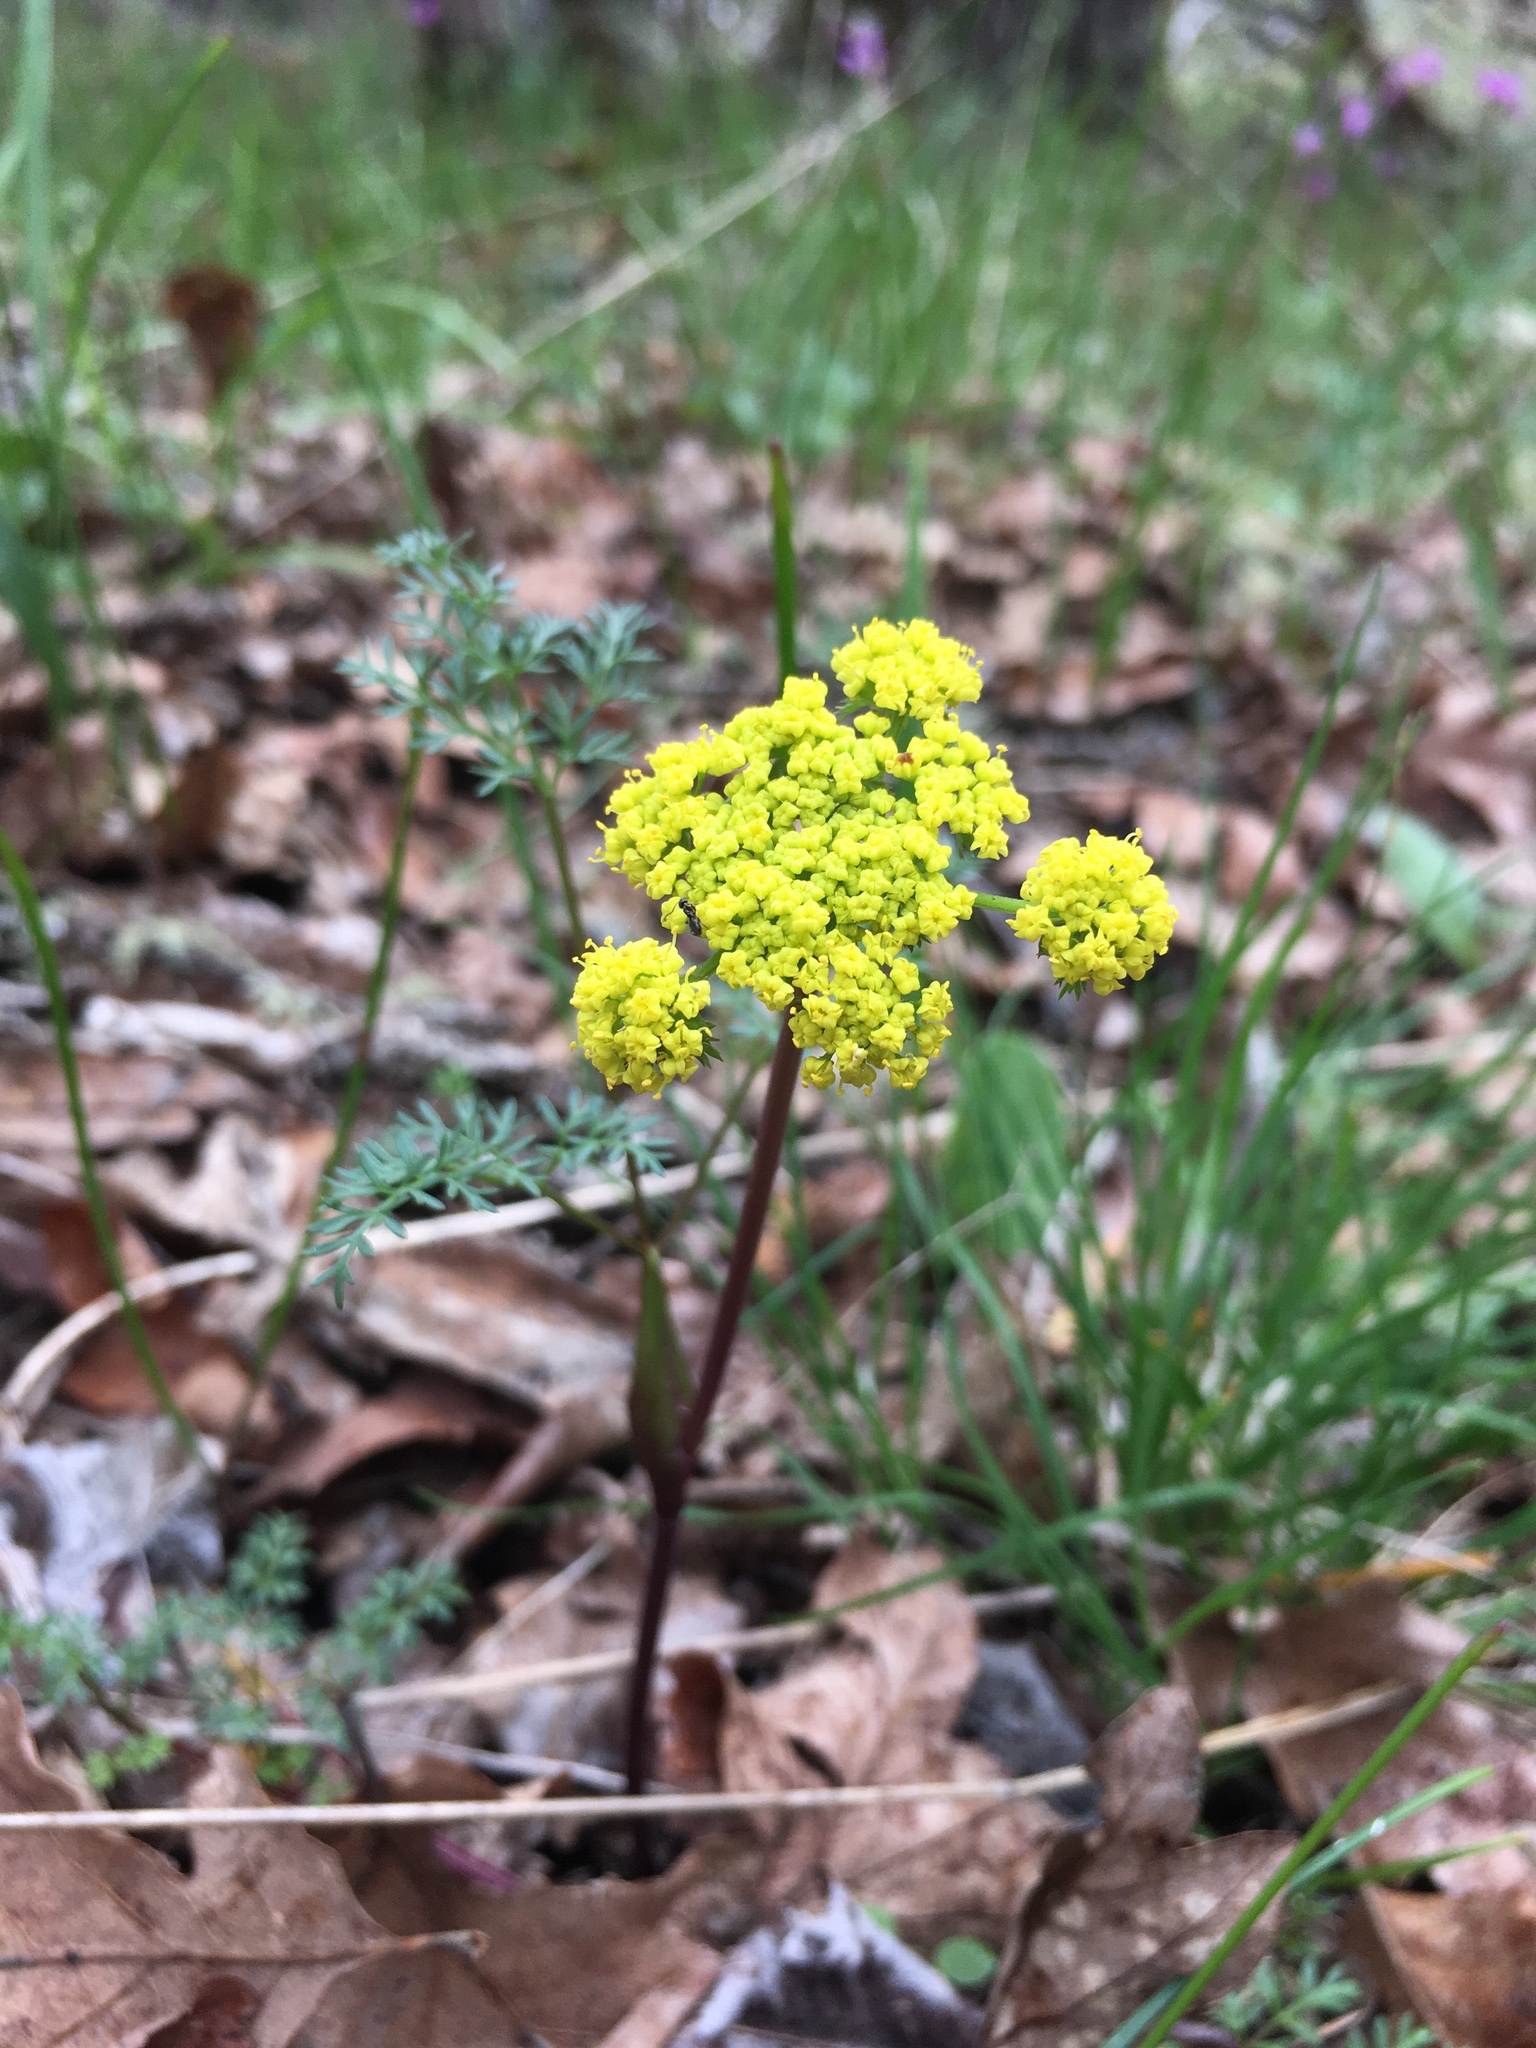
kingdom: Plantae
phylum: Tracheophyta
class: Magnoliopsida
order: Apiales
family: Apiaceae
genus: Lomatium
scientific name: Lomatium utriculatum
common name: Fine-leaf desert-parsley
